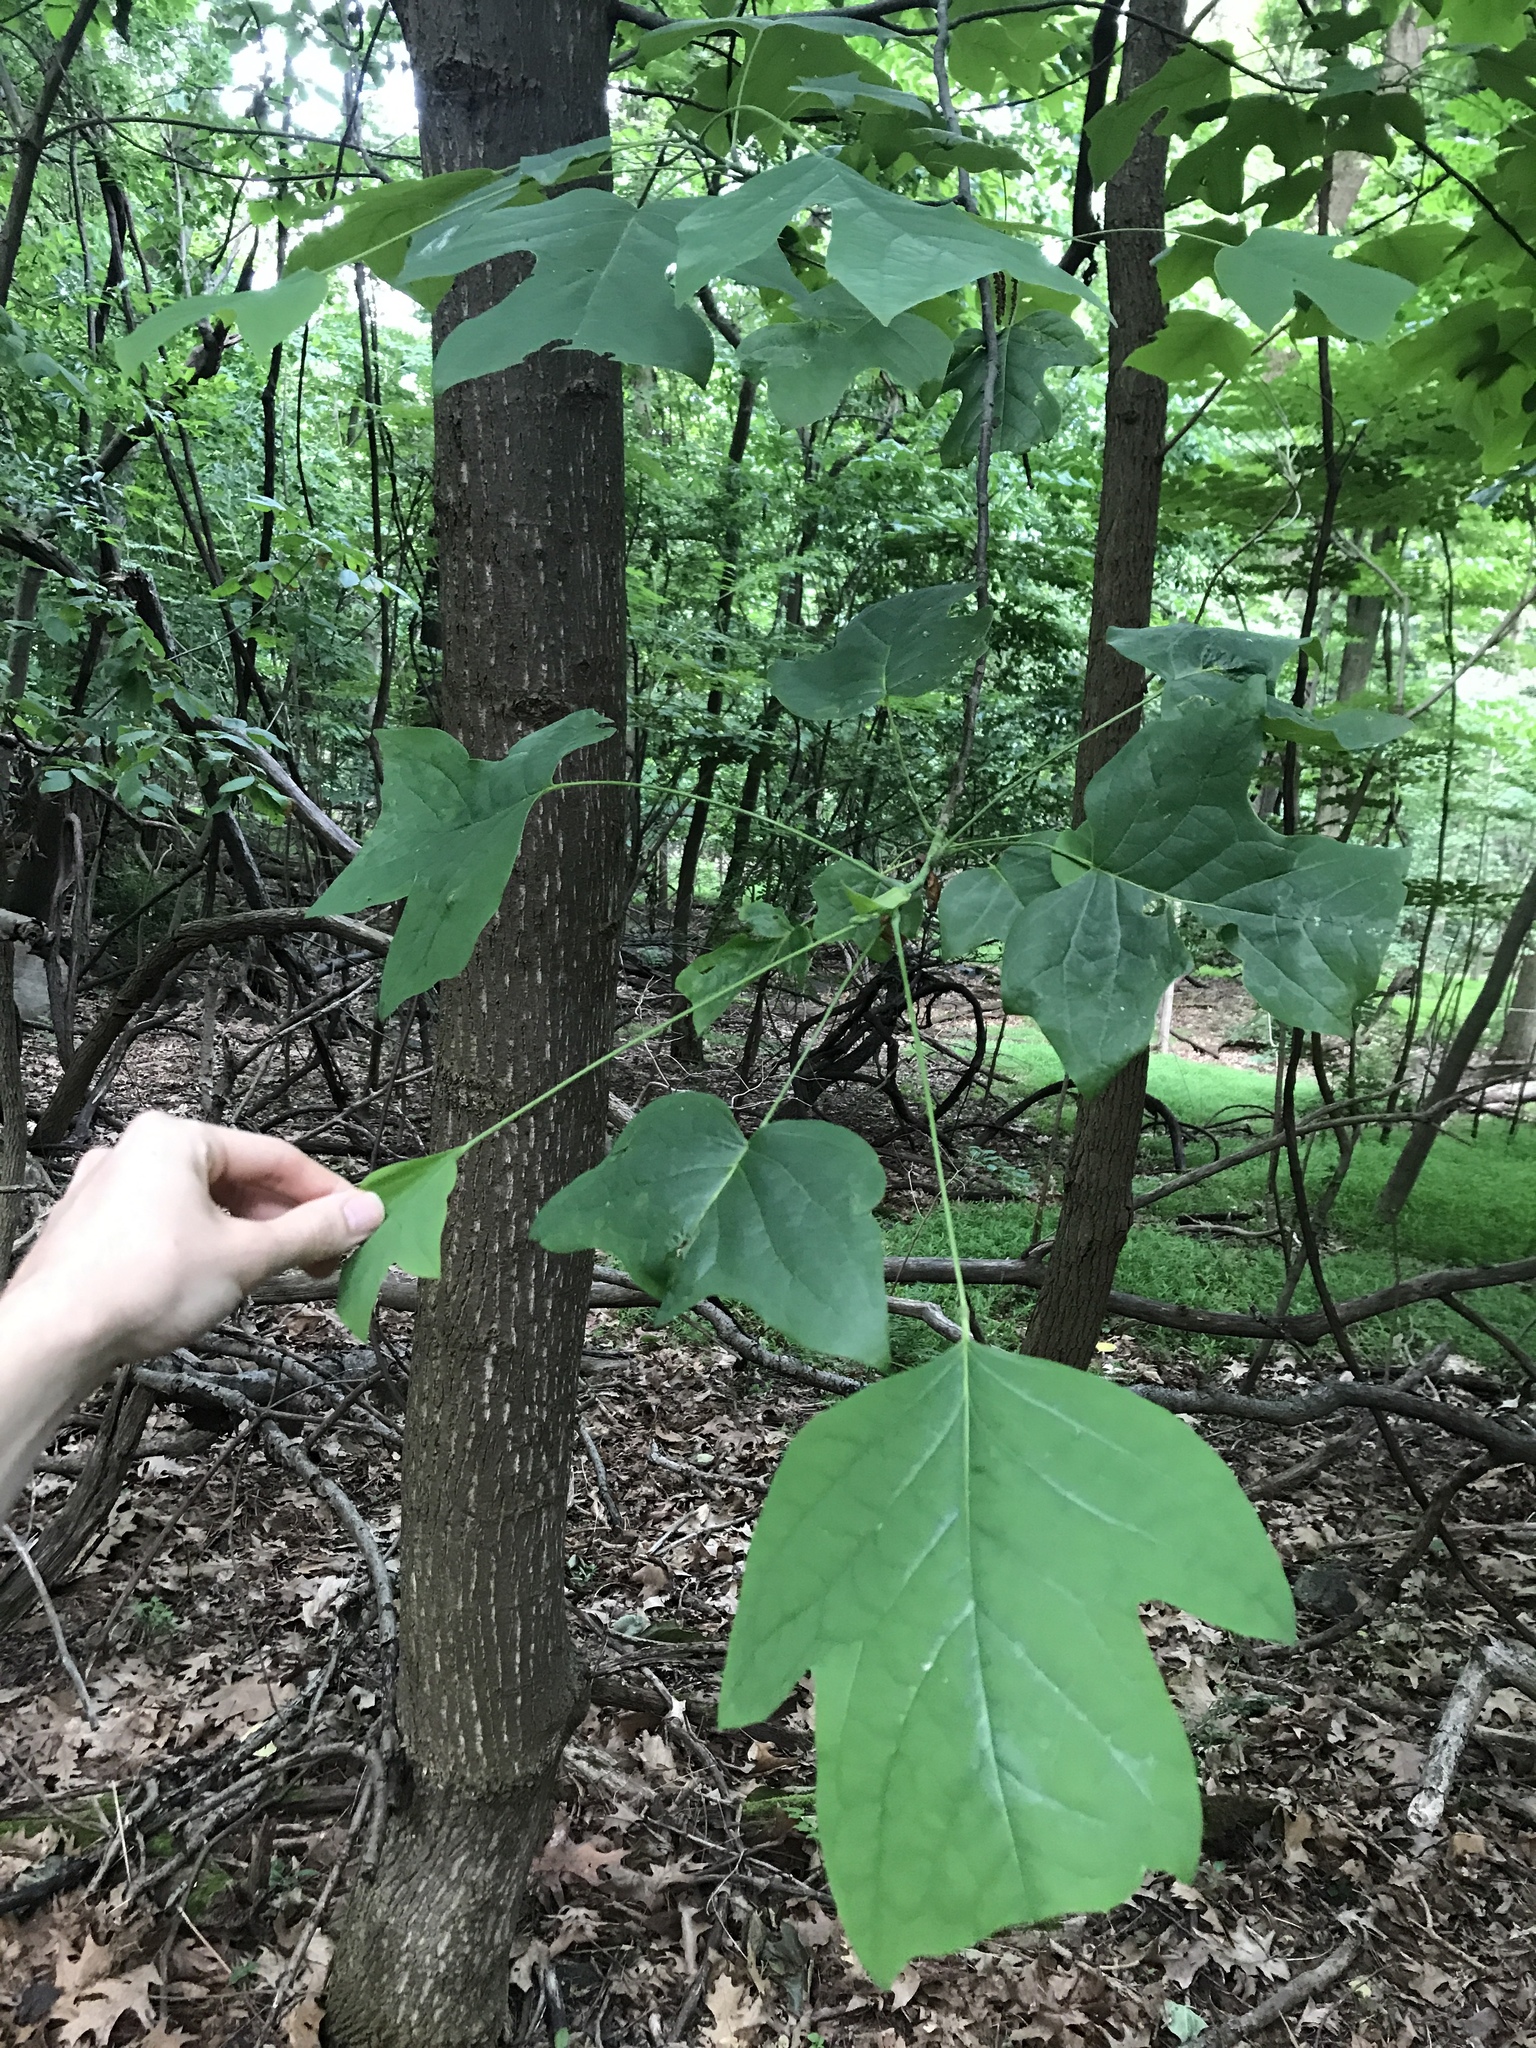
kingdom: Plantae
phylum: Tracheophyta
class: Magnoliopsida
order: Magnoliales
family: Magnoliaceae
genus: Liriodendron
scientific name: Liriodendron tulipifera
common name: Tulip tree
